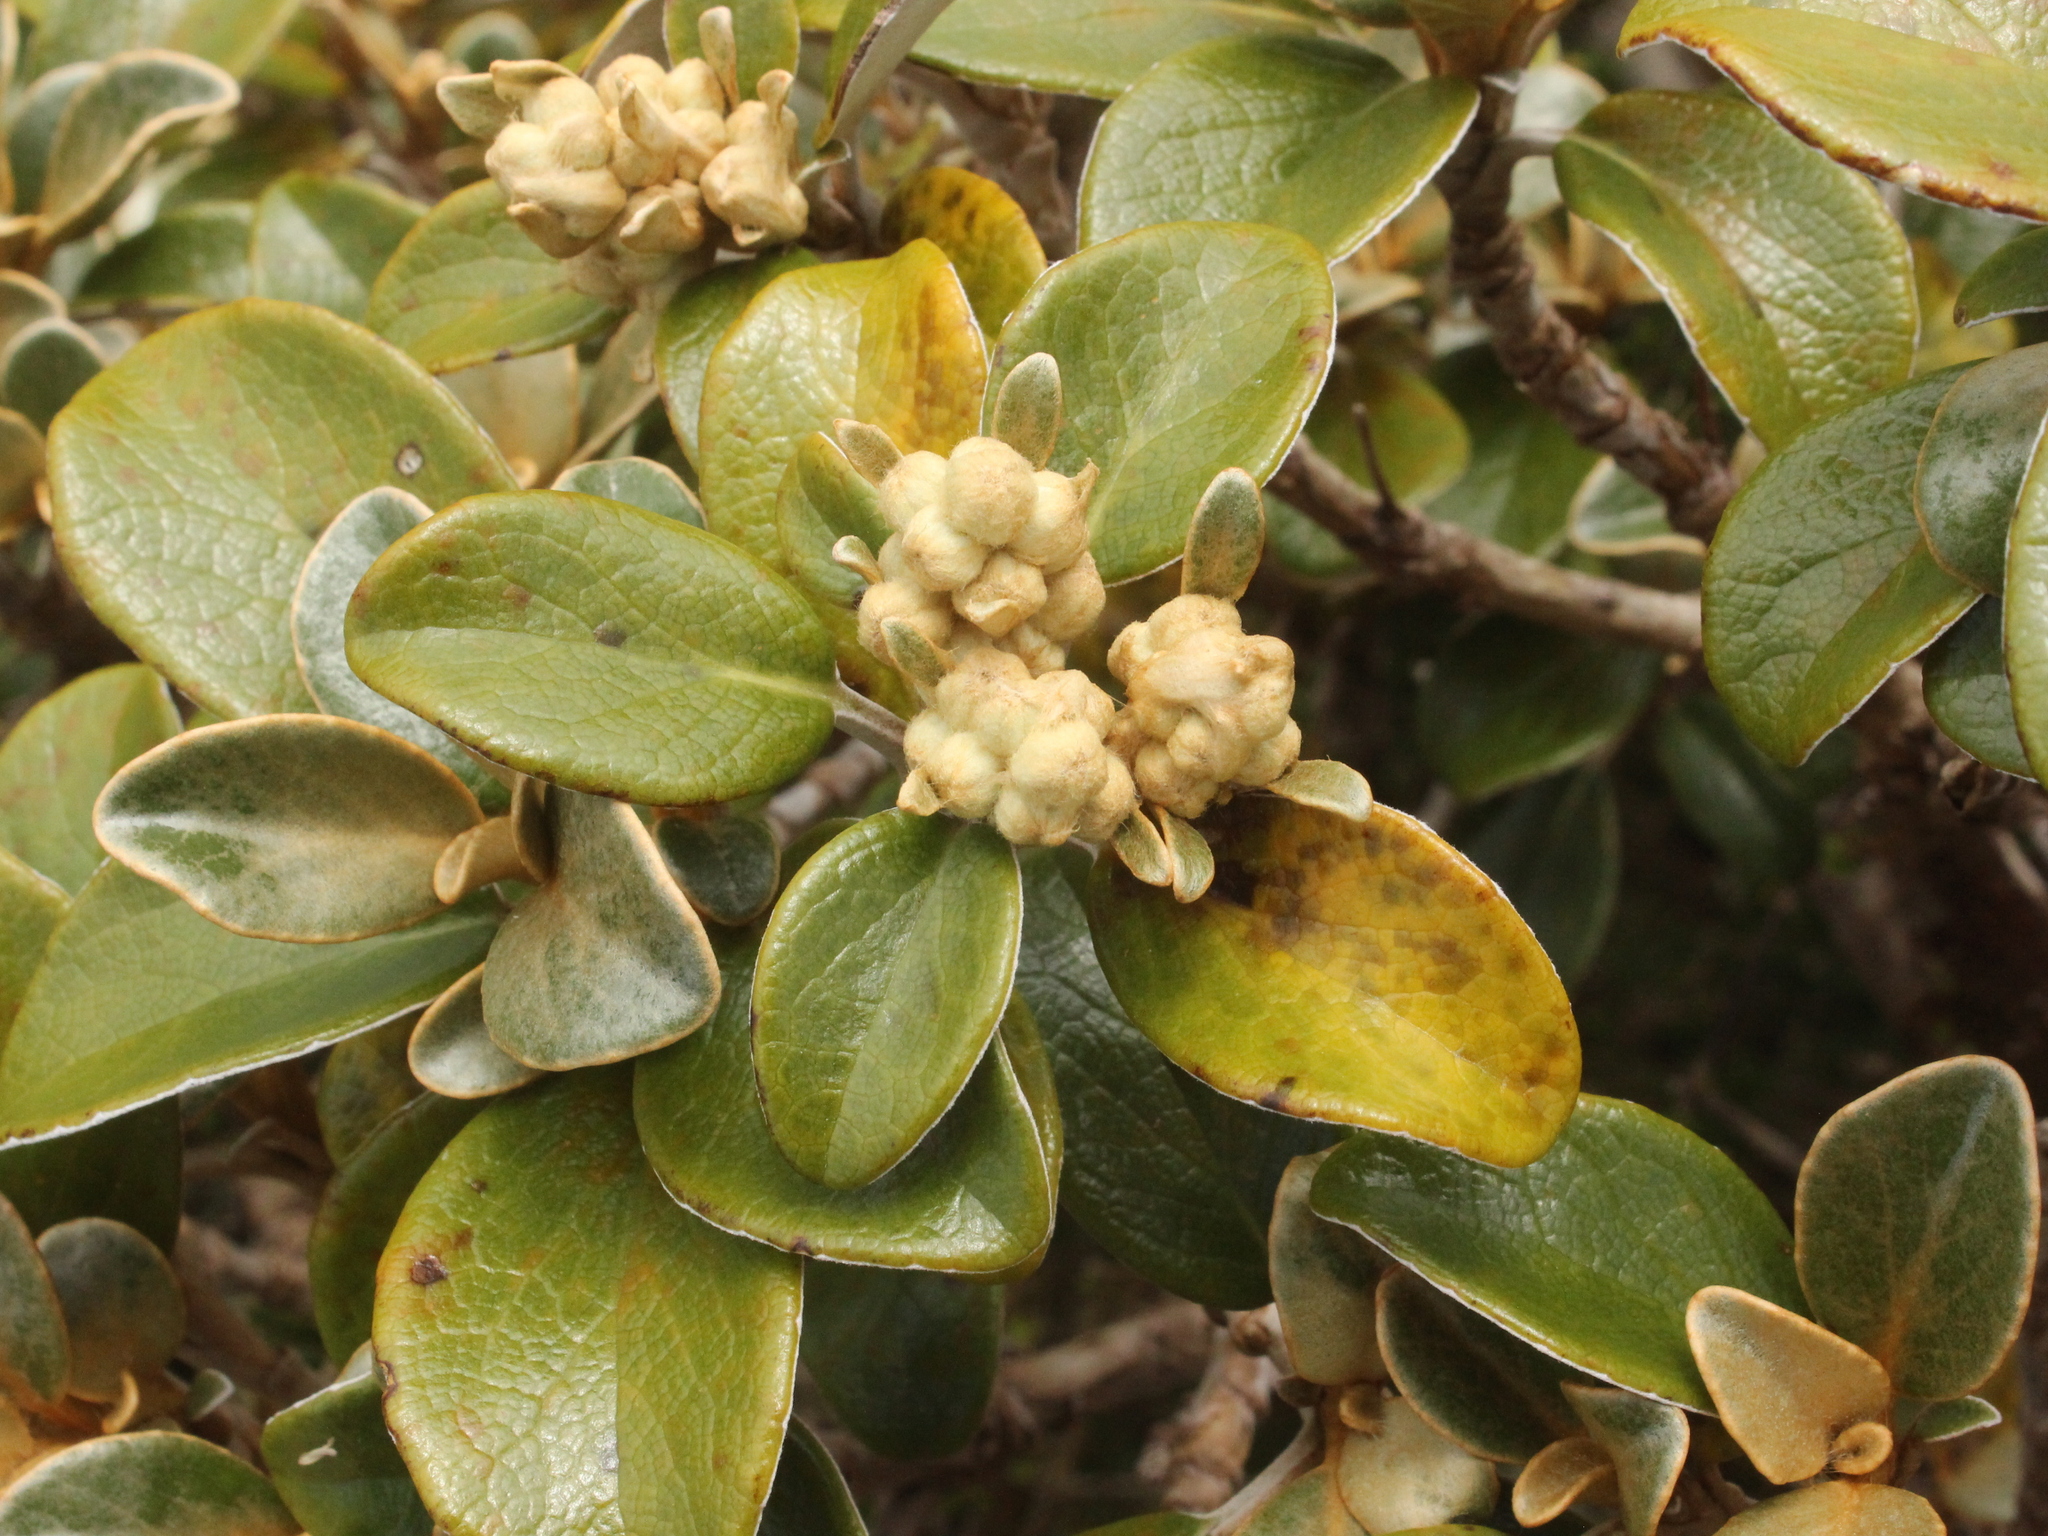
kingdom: Plantae
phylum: Tracheophyta
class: Magnoliopsida
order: Asterales
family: Asteraceae
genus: Brachyglottis
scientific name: Brachyglottis elaeagnifolia
